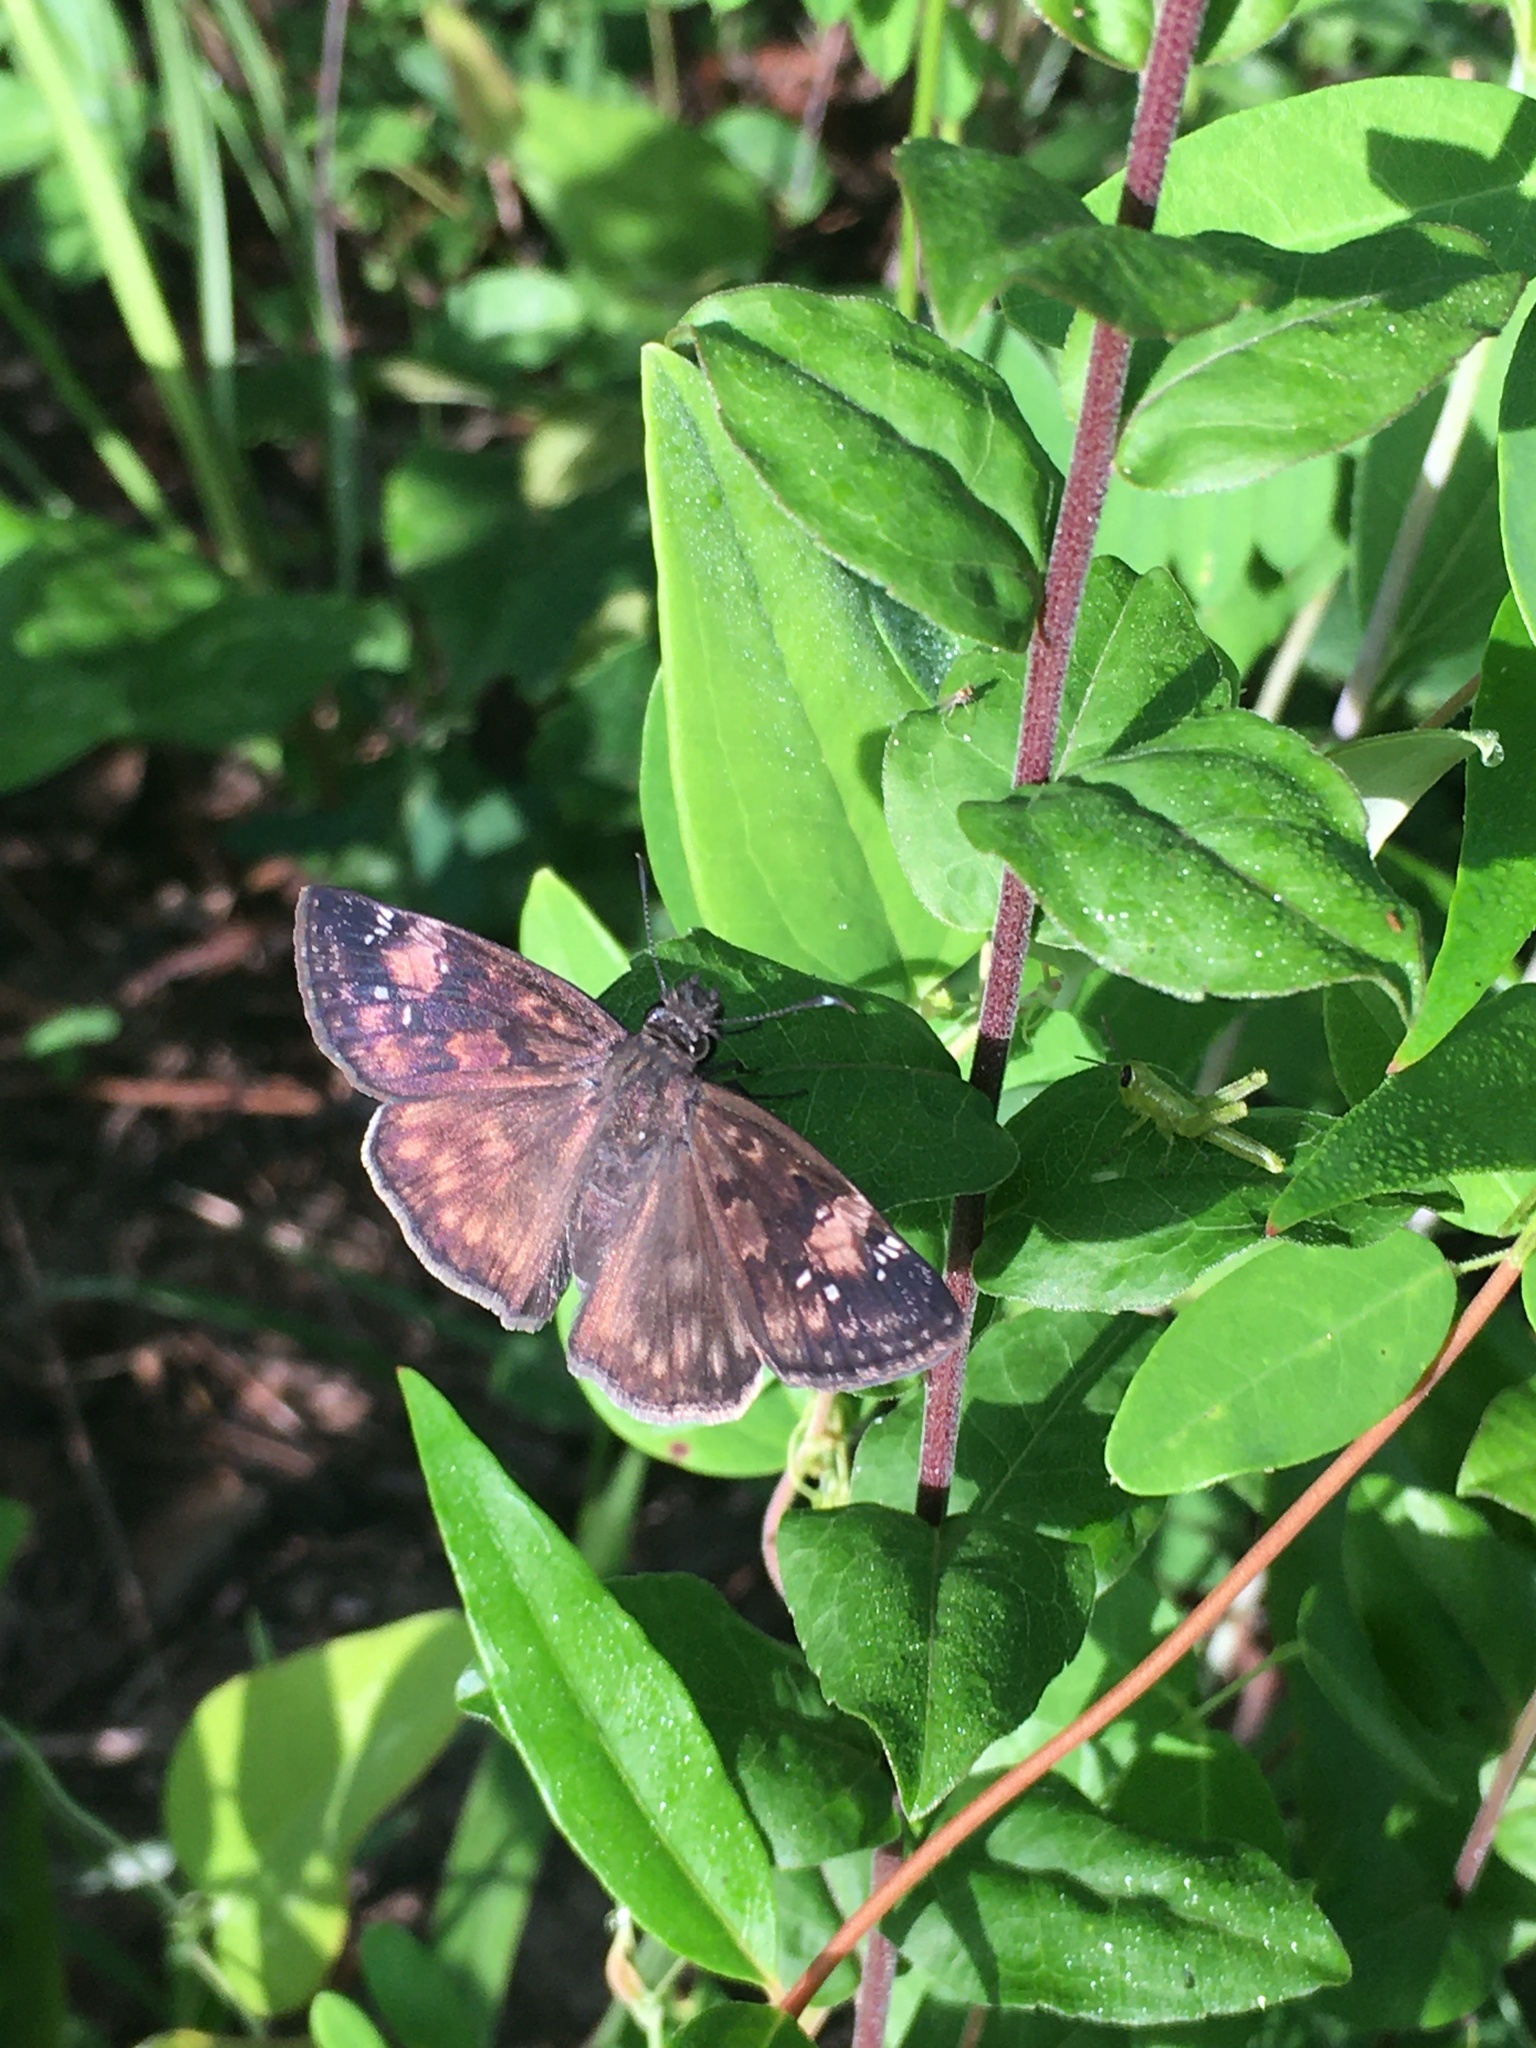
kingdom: Animalia
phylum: Arthropoda
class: Insecta
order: Lepidoptera
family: Hesperiidae
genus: Erynnis
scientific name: Erynnis zarucco
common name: Zarucco duskywing
